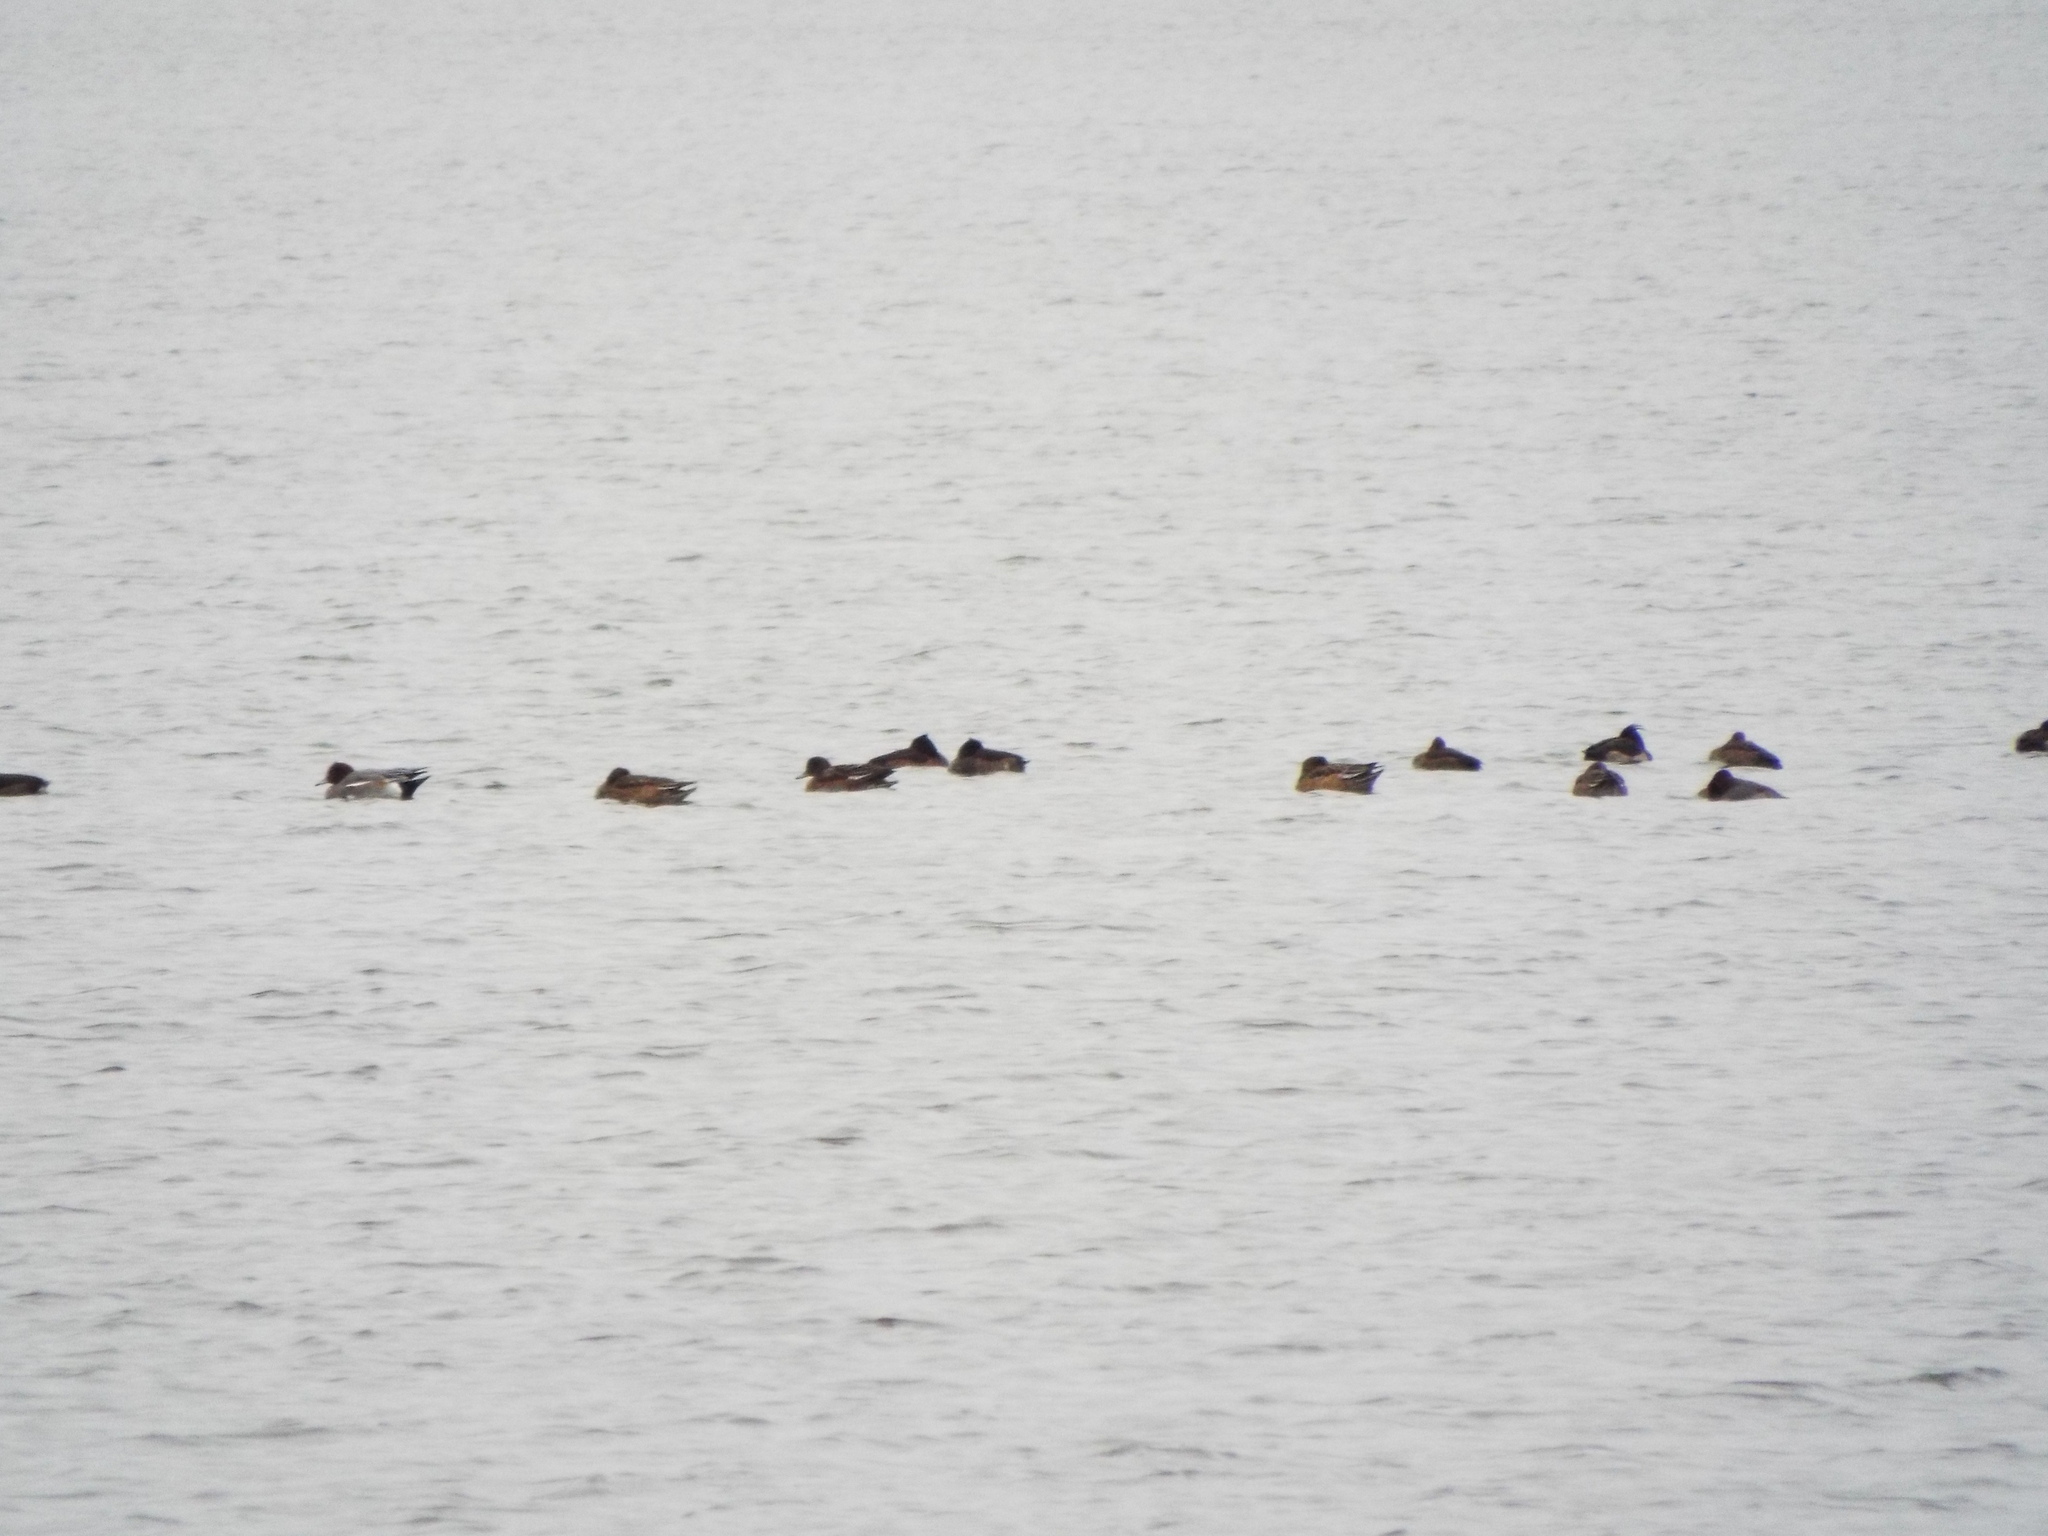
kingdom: Animalia
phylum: Chordata
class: Aves
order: Anseriformes
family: Anatidae
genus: Mareca
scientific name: Mareca penelope
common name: Eurasian wigeon
